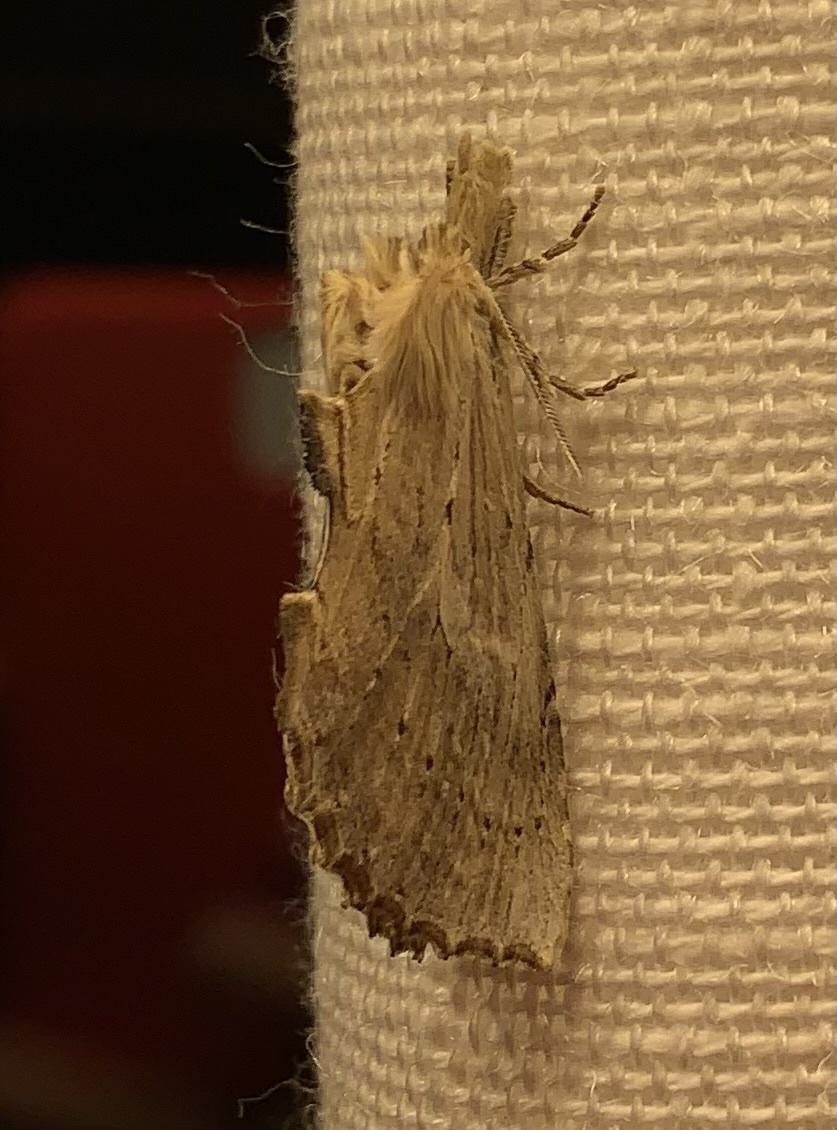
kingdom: Animalia
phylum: Arthropoda
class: Insecta
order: Lepidoptera
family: Notodontidae
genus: Pterostoma
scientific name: Pterostoma palpina
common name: Pale prominent
